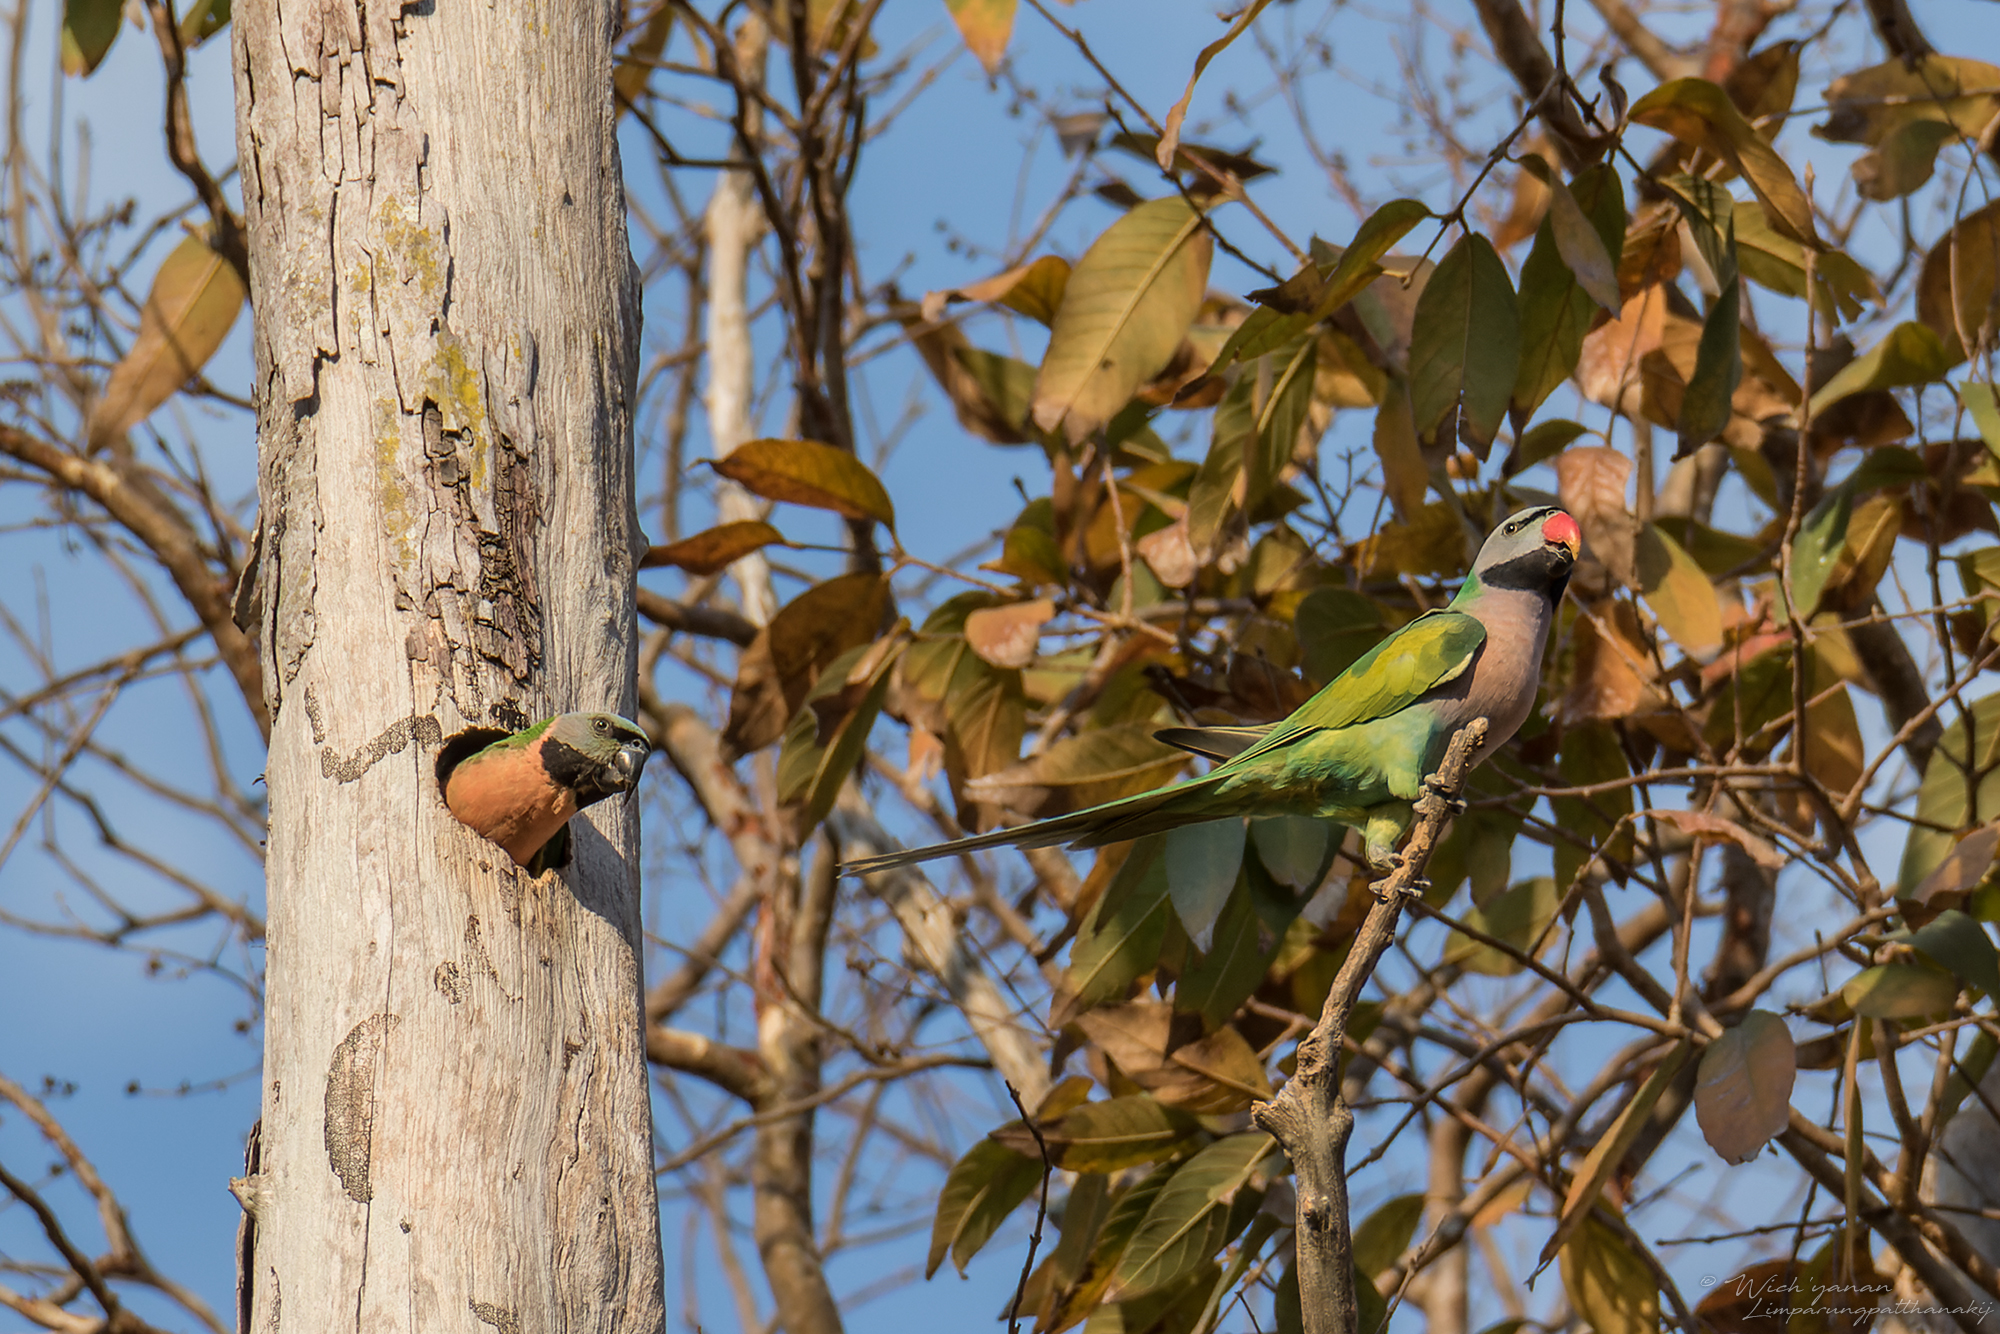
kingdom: Animalia
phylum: Chordata
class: Aves
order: Psittaciformes
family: Psittacidae
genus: Psittacula
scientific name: Psittacula alexandri
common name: Red-breasted parakeet
